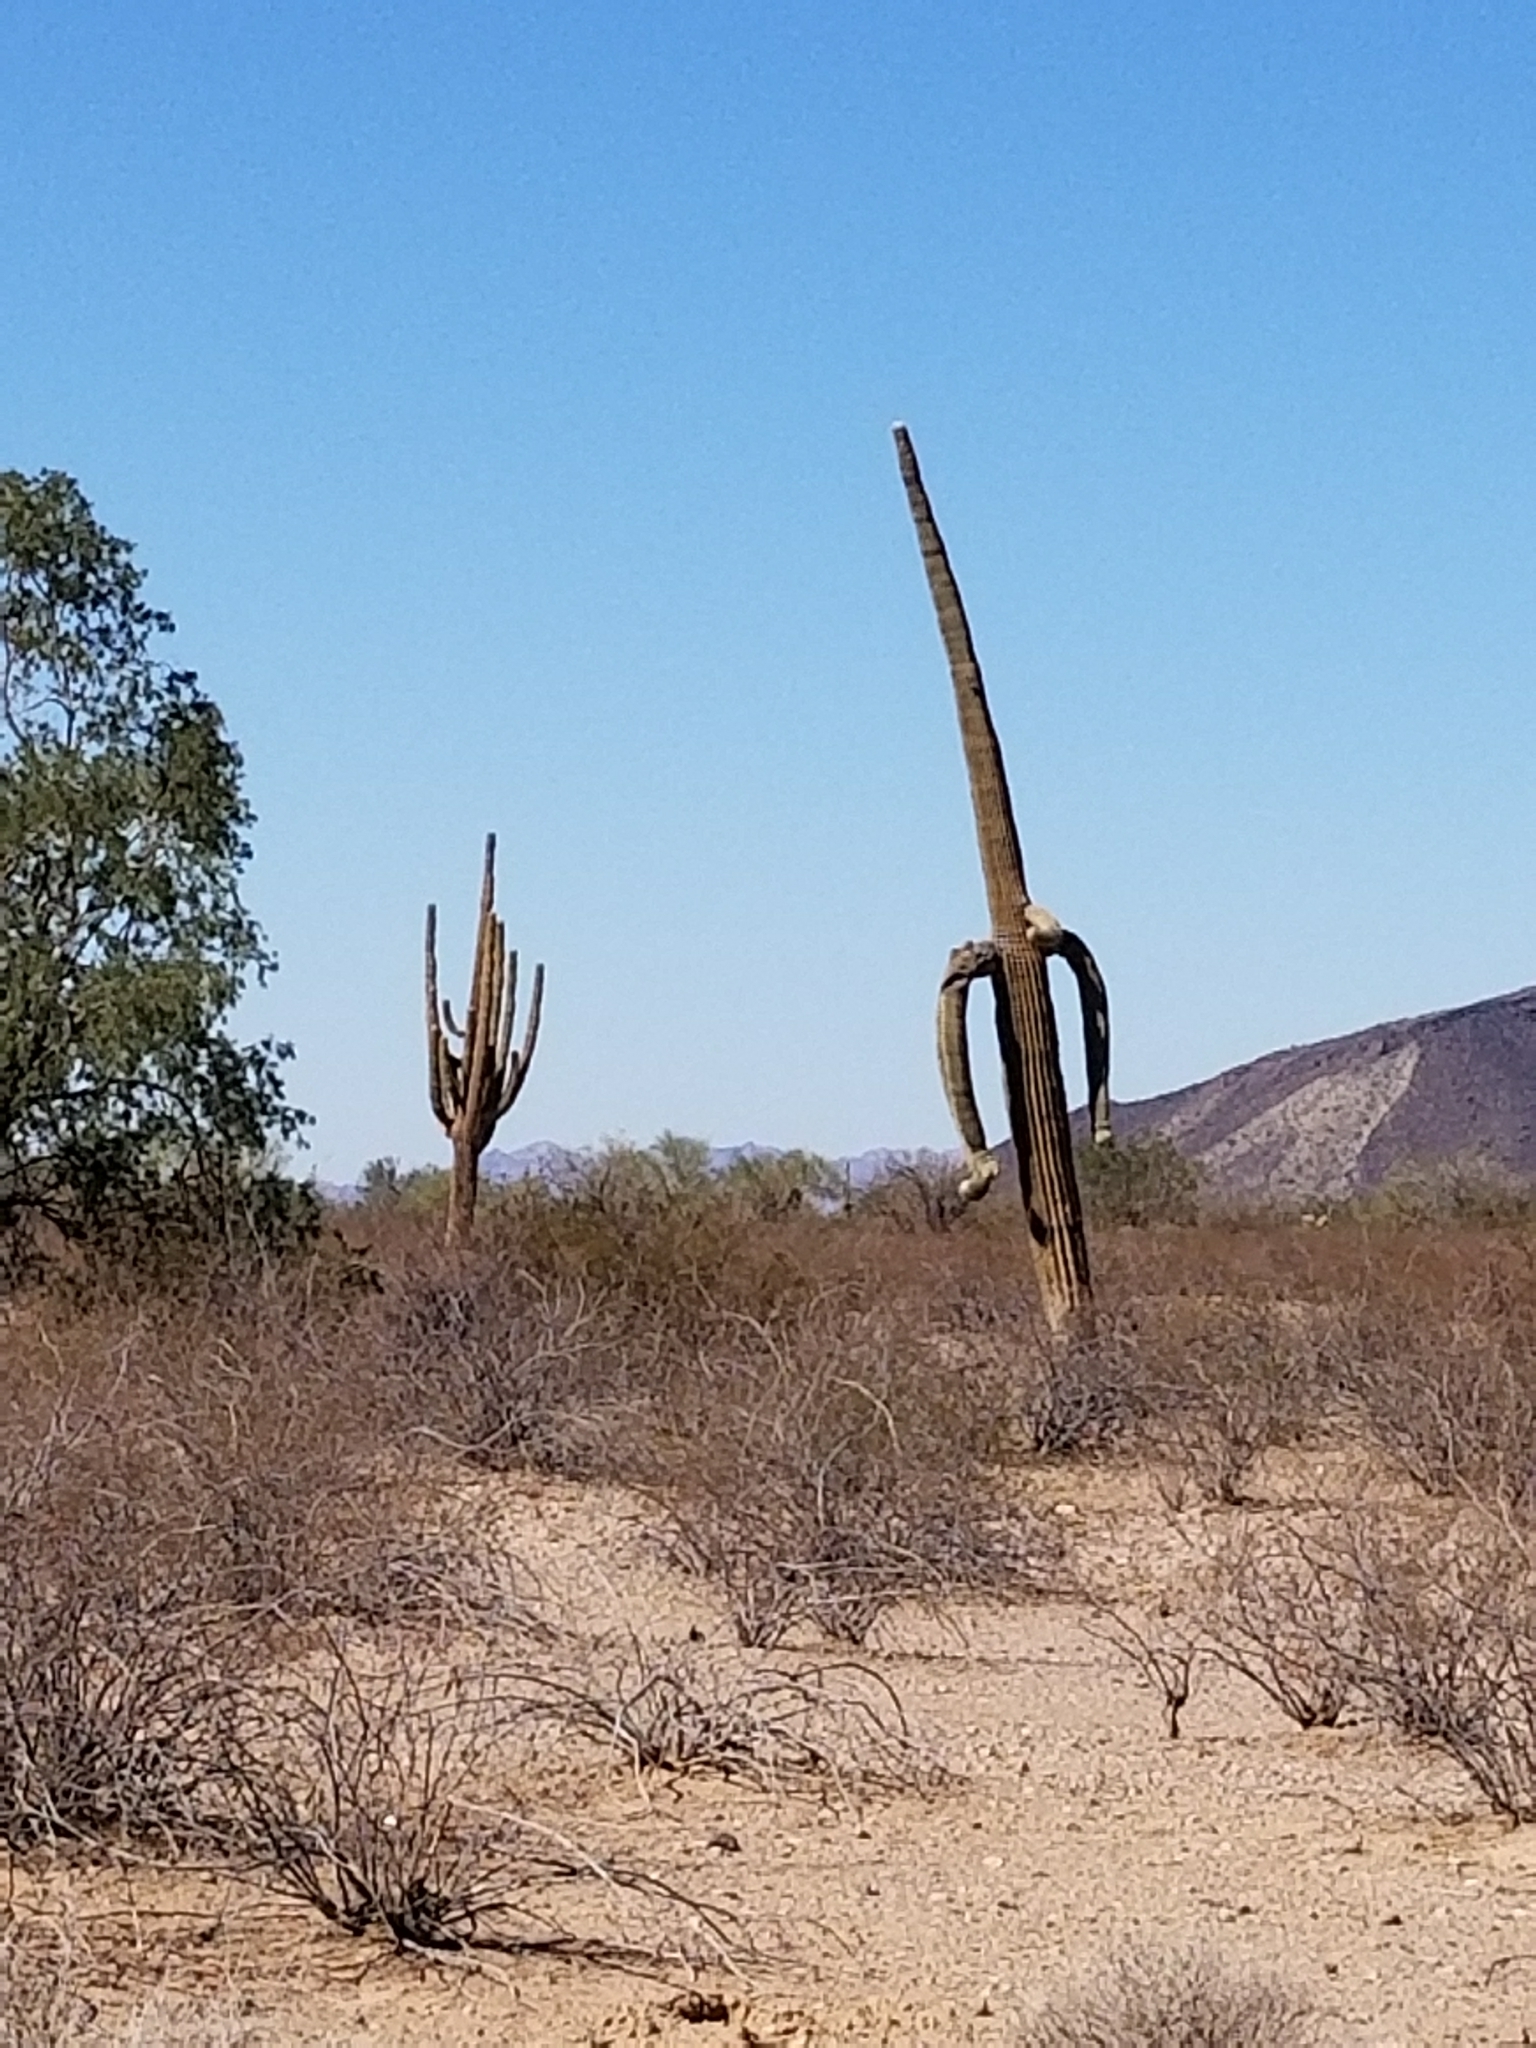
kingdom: Plantae
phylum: Tracheophyta
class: Magnoliopsida
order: Caryophyllales
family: Cactaceae
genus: Carnegiea
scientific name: Carnegiea gigantea
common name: Saguaro
